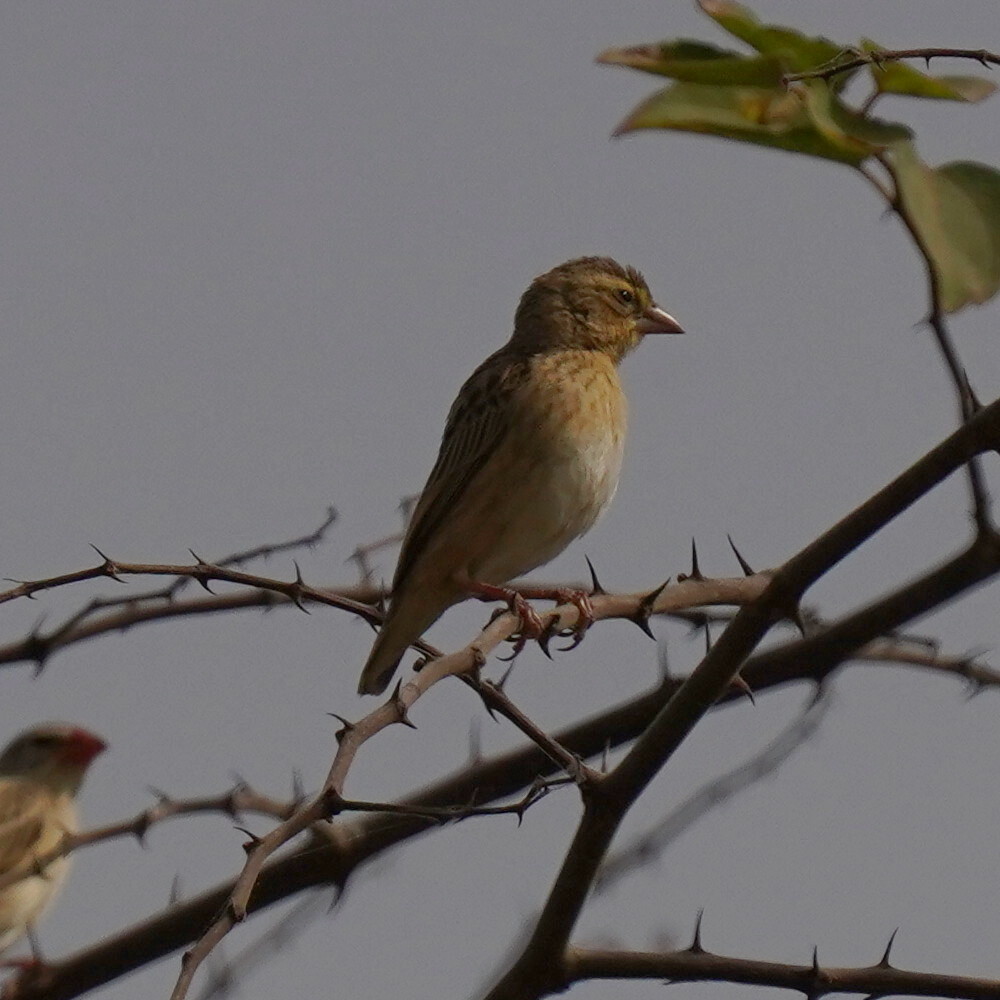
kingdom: Animalia
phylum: Chordata
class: Aves
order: Passeriformes
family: Ploceidae
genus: Euplectes
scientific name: Euplectes franciscanus
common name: Northern red bishop
